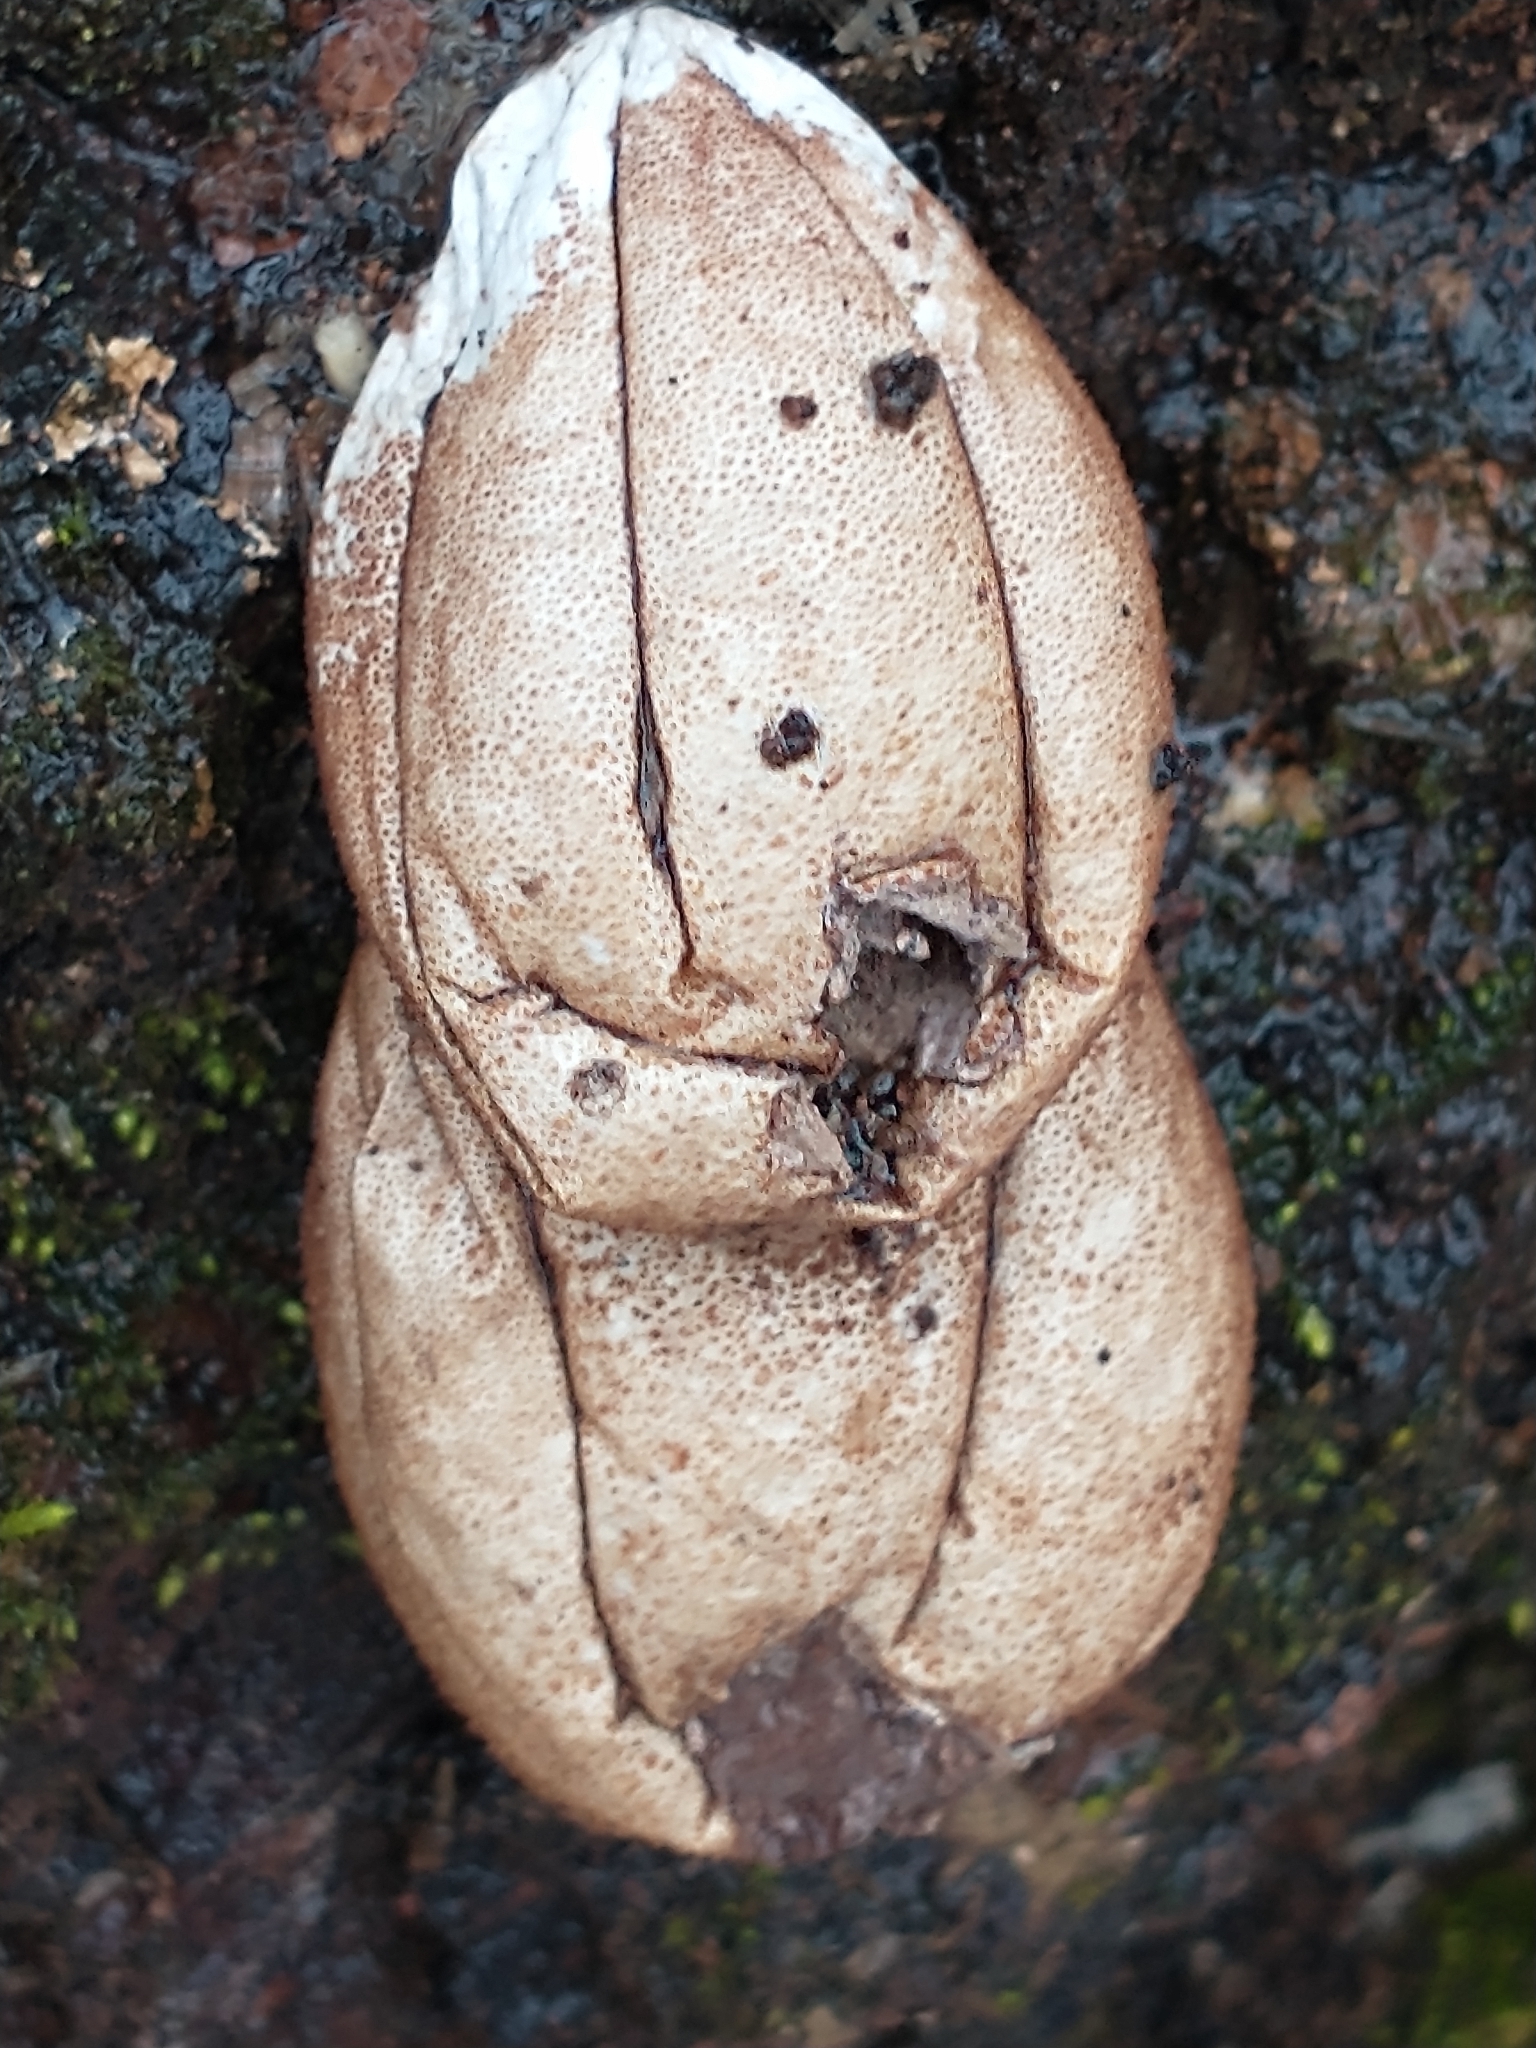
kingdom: Fungi
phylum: Basidiomycota
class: Agaricomycetes
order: Agaricales
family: Lycoperdaceae
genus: Apioperdon
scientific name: Apioperdon pyriforme
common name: Pear-shaped puffball
